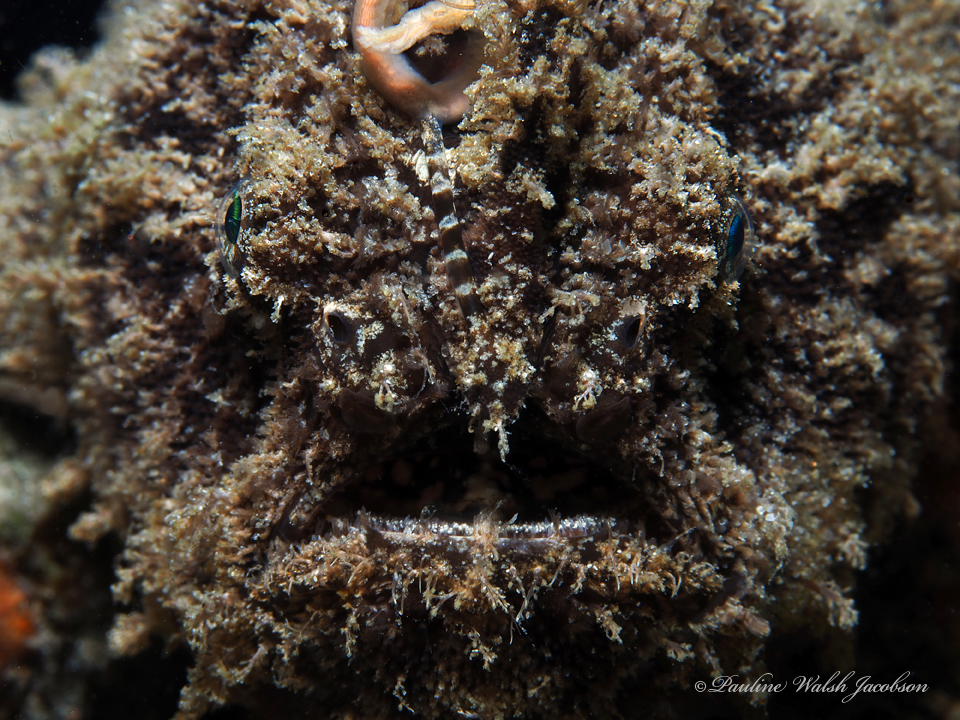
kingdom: Animalia
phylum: Chordata
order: Lophiiformes
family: Antennariidae
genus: Antennarius
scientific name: Antennarius striatus
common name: Striated frogfish
